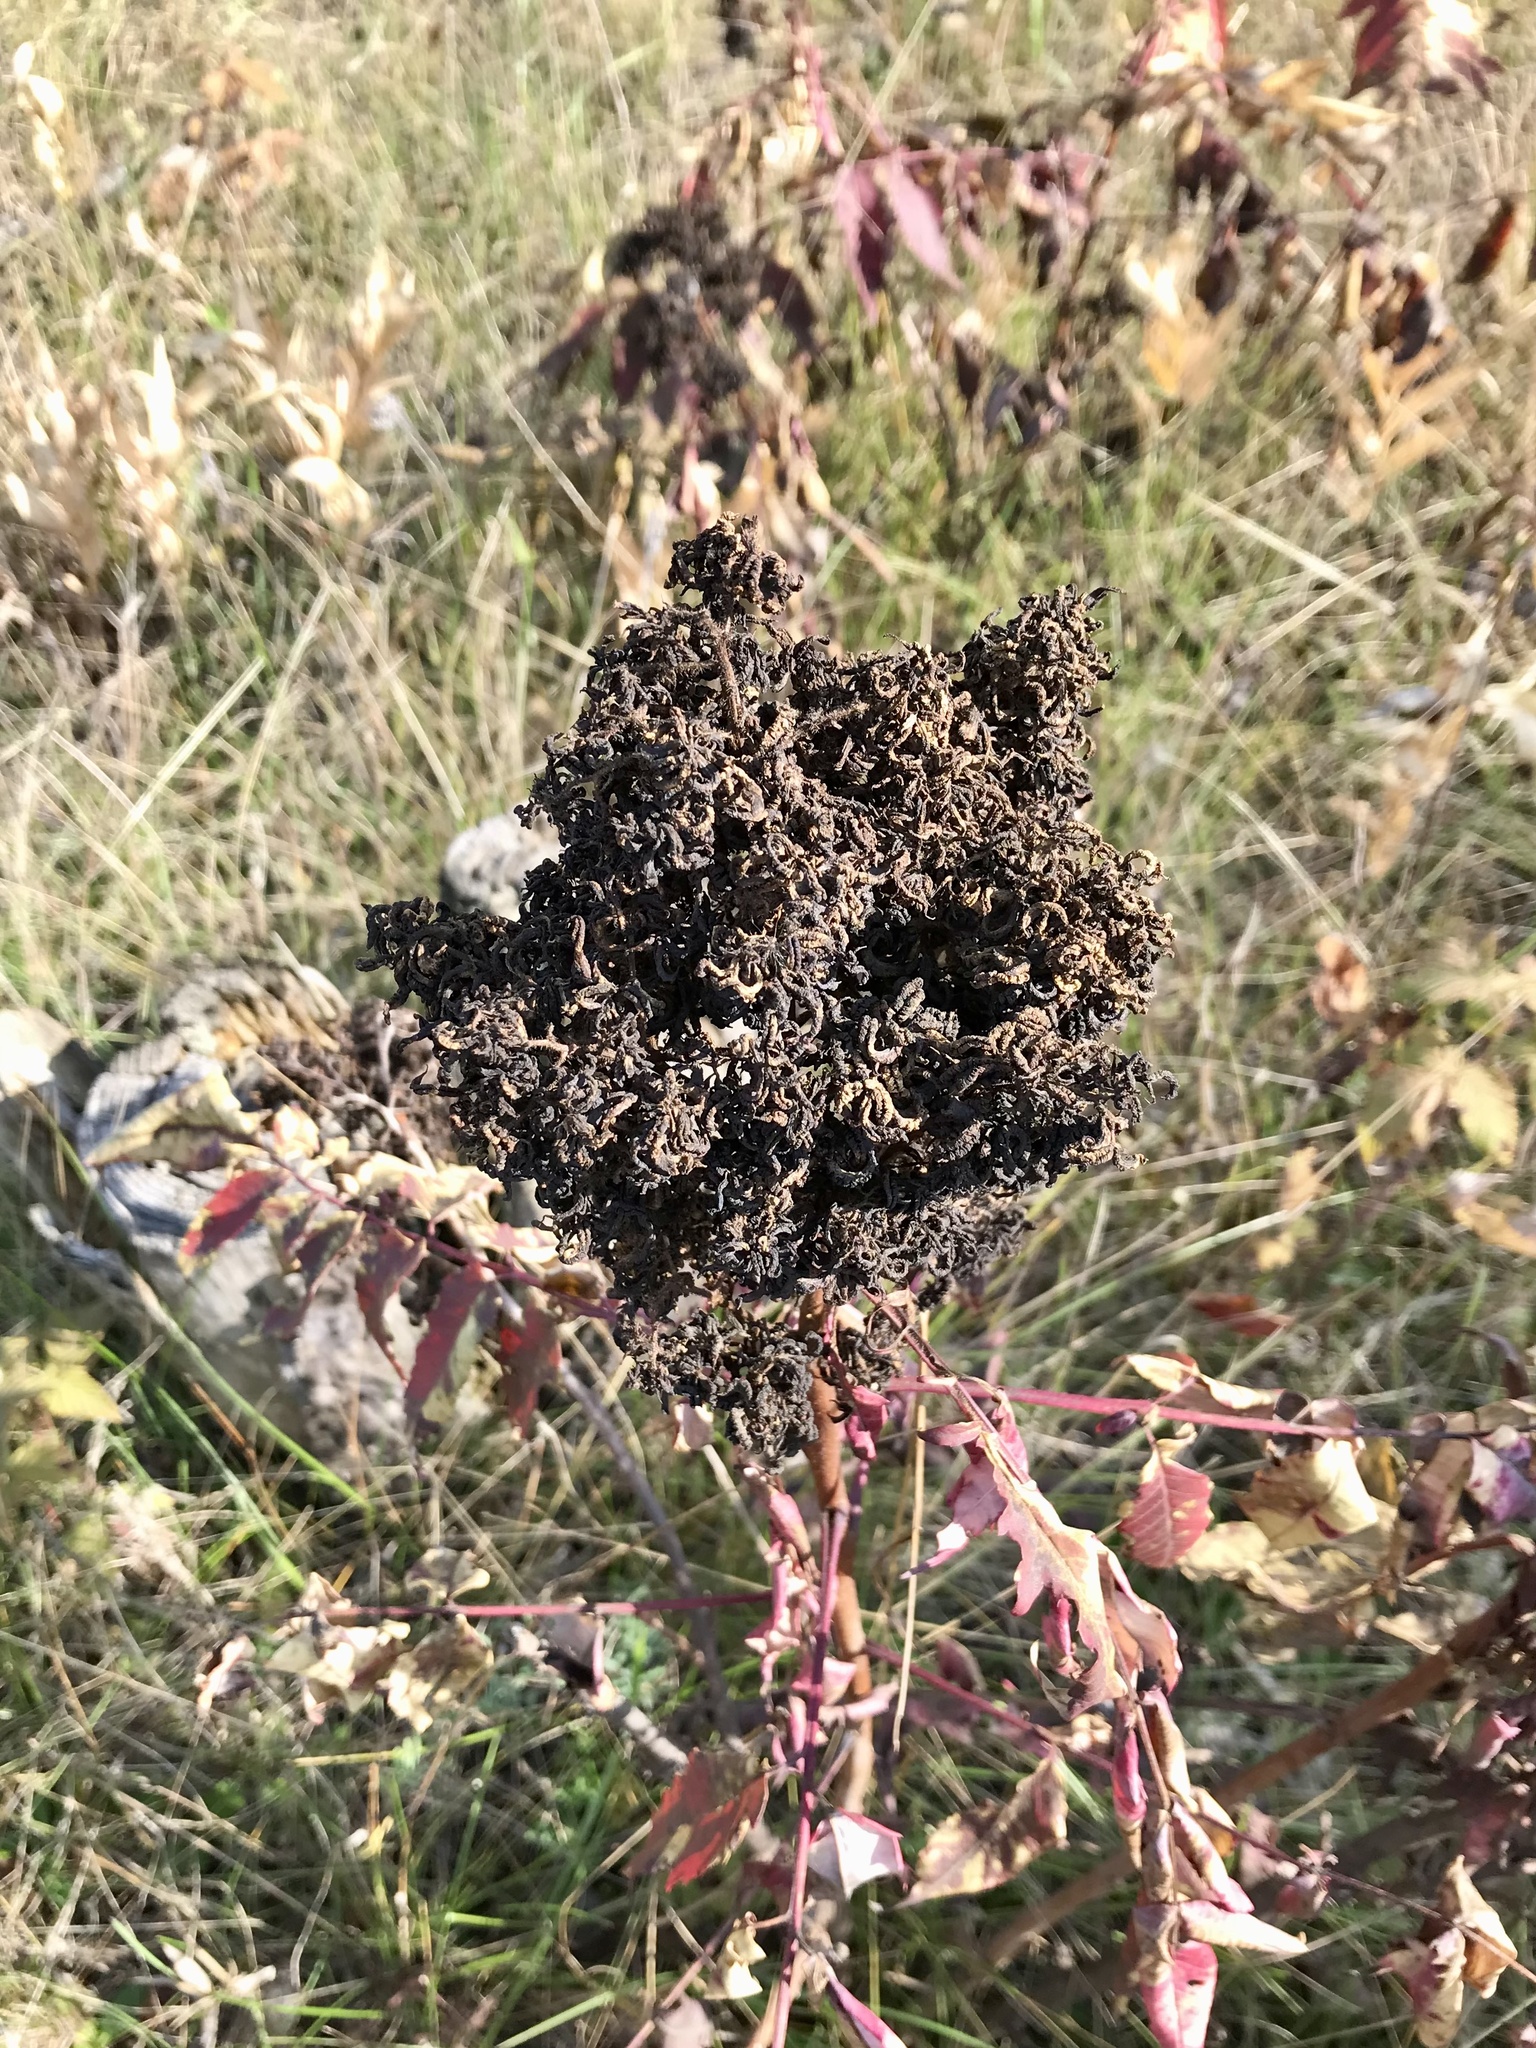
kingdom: Animalia
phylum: Arthropoda
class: Arachnida
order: Trombidiformes
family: Eriophyidae
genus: Eriophyes
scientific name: Eriophyes
